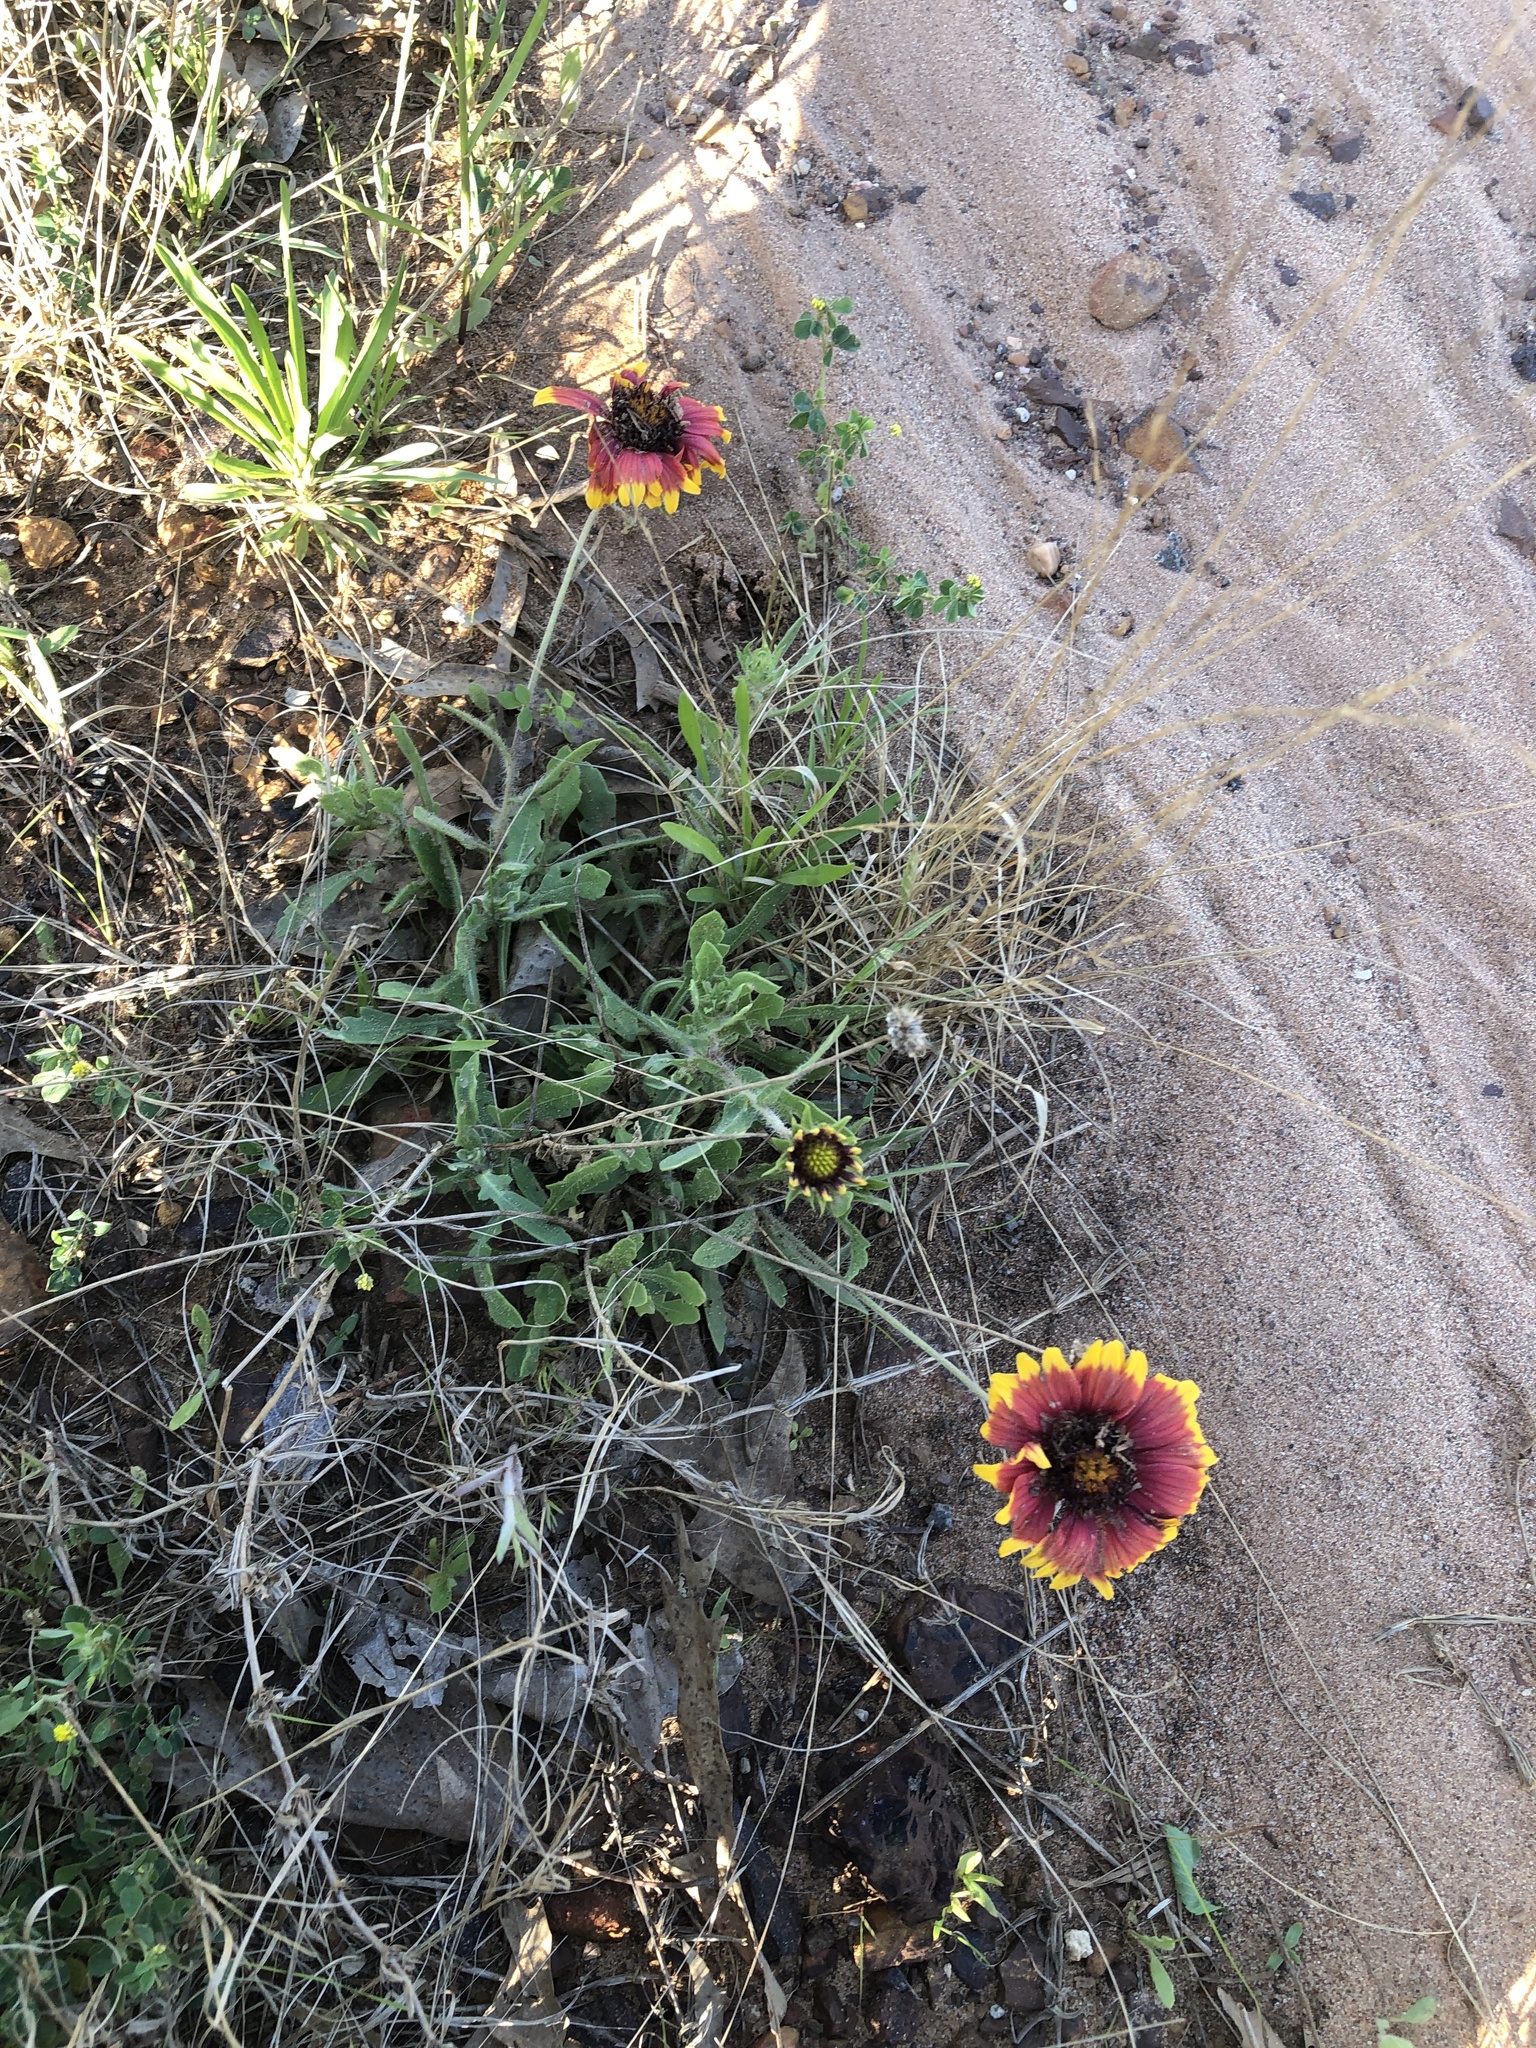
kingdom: Plantae
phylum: Tracheophyta
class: Magnoliopsida
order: Asterales
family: Asteraceae
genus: Gaillardia
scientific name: Gaillardia pulchella
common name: Firewheel
